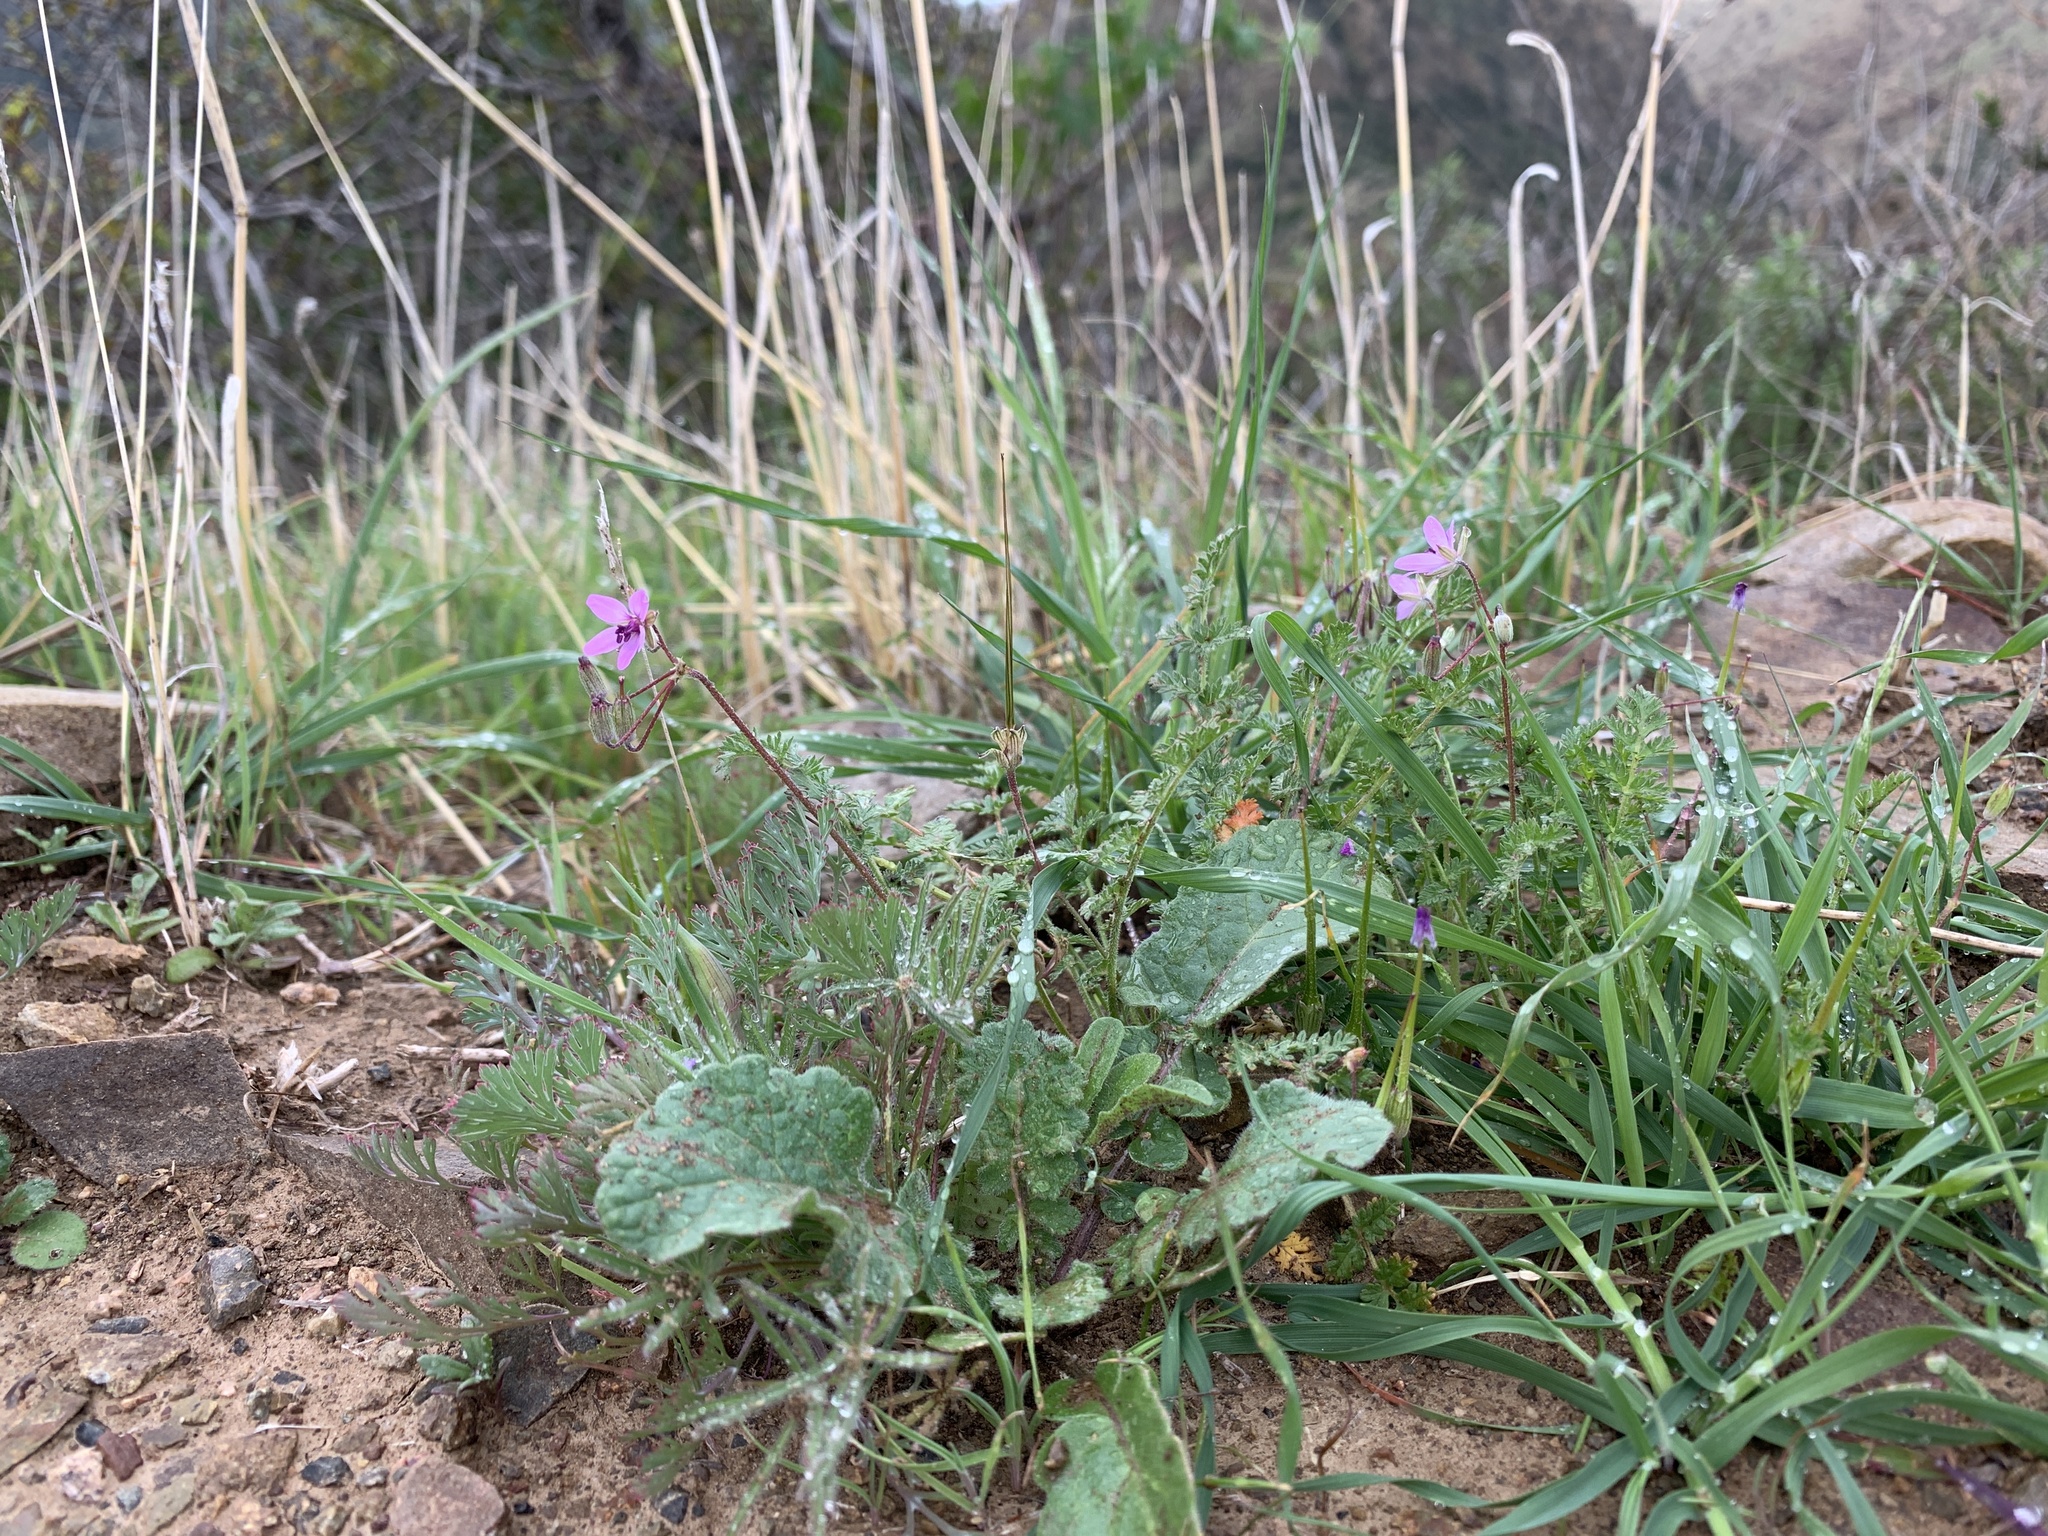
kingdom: Plantae
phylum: Tracheophyta
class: Magnoliopsida
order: Geraniales
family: Geraniaceae
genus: Erodium
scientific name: Erodium cicutarium
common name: Common stork's-bill
